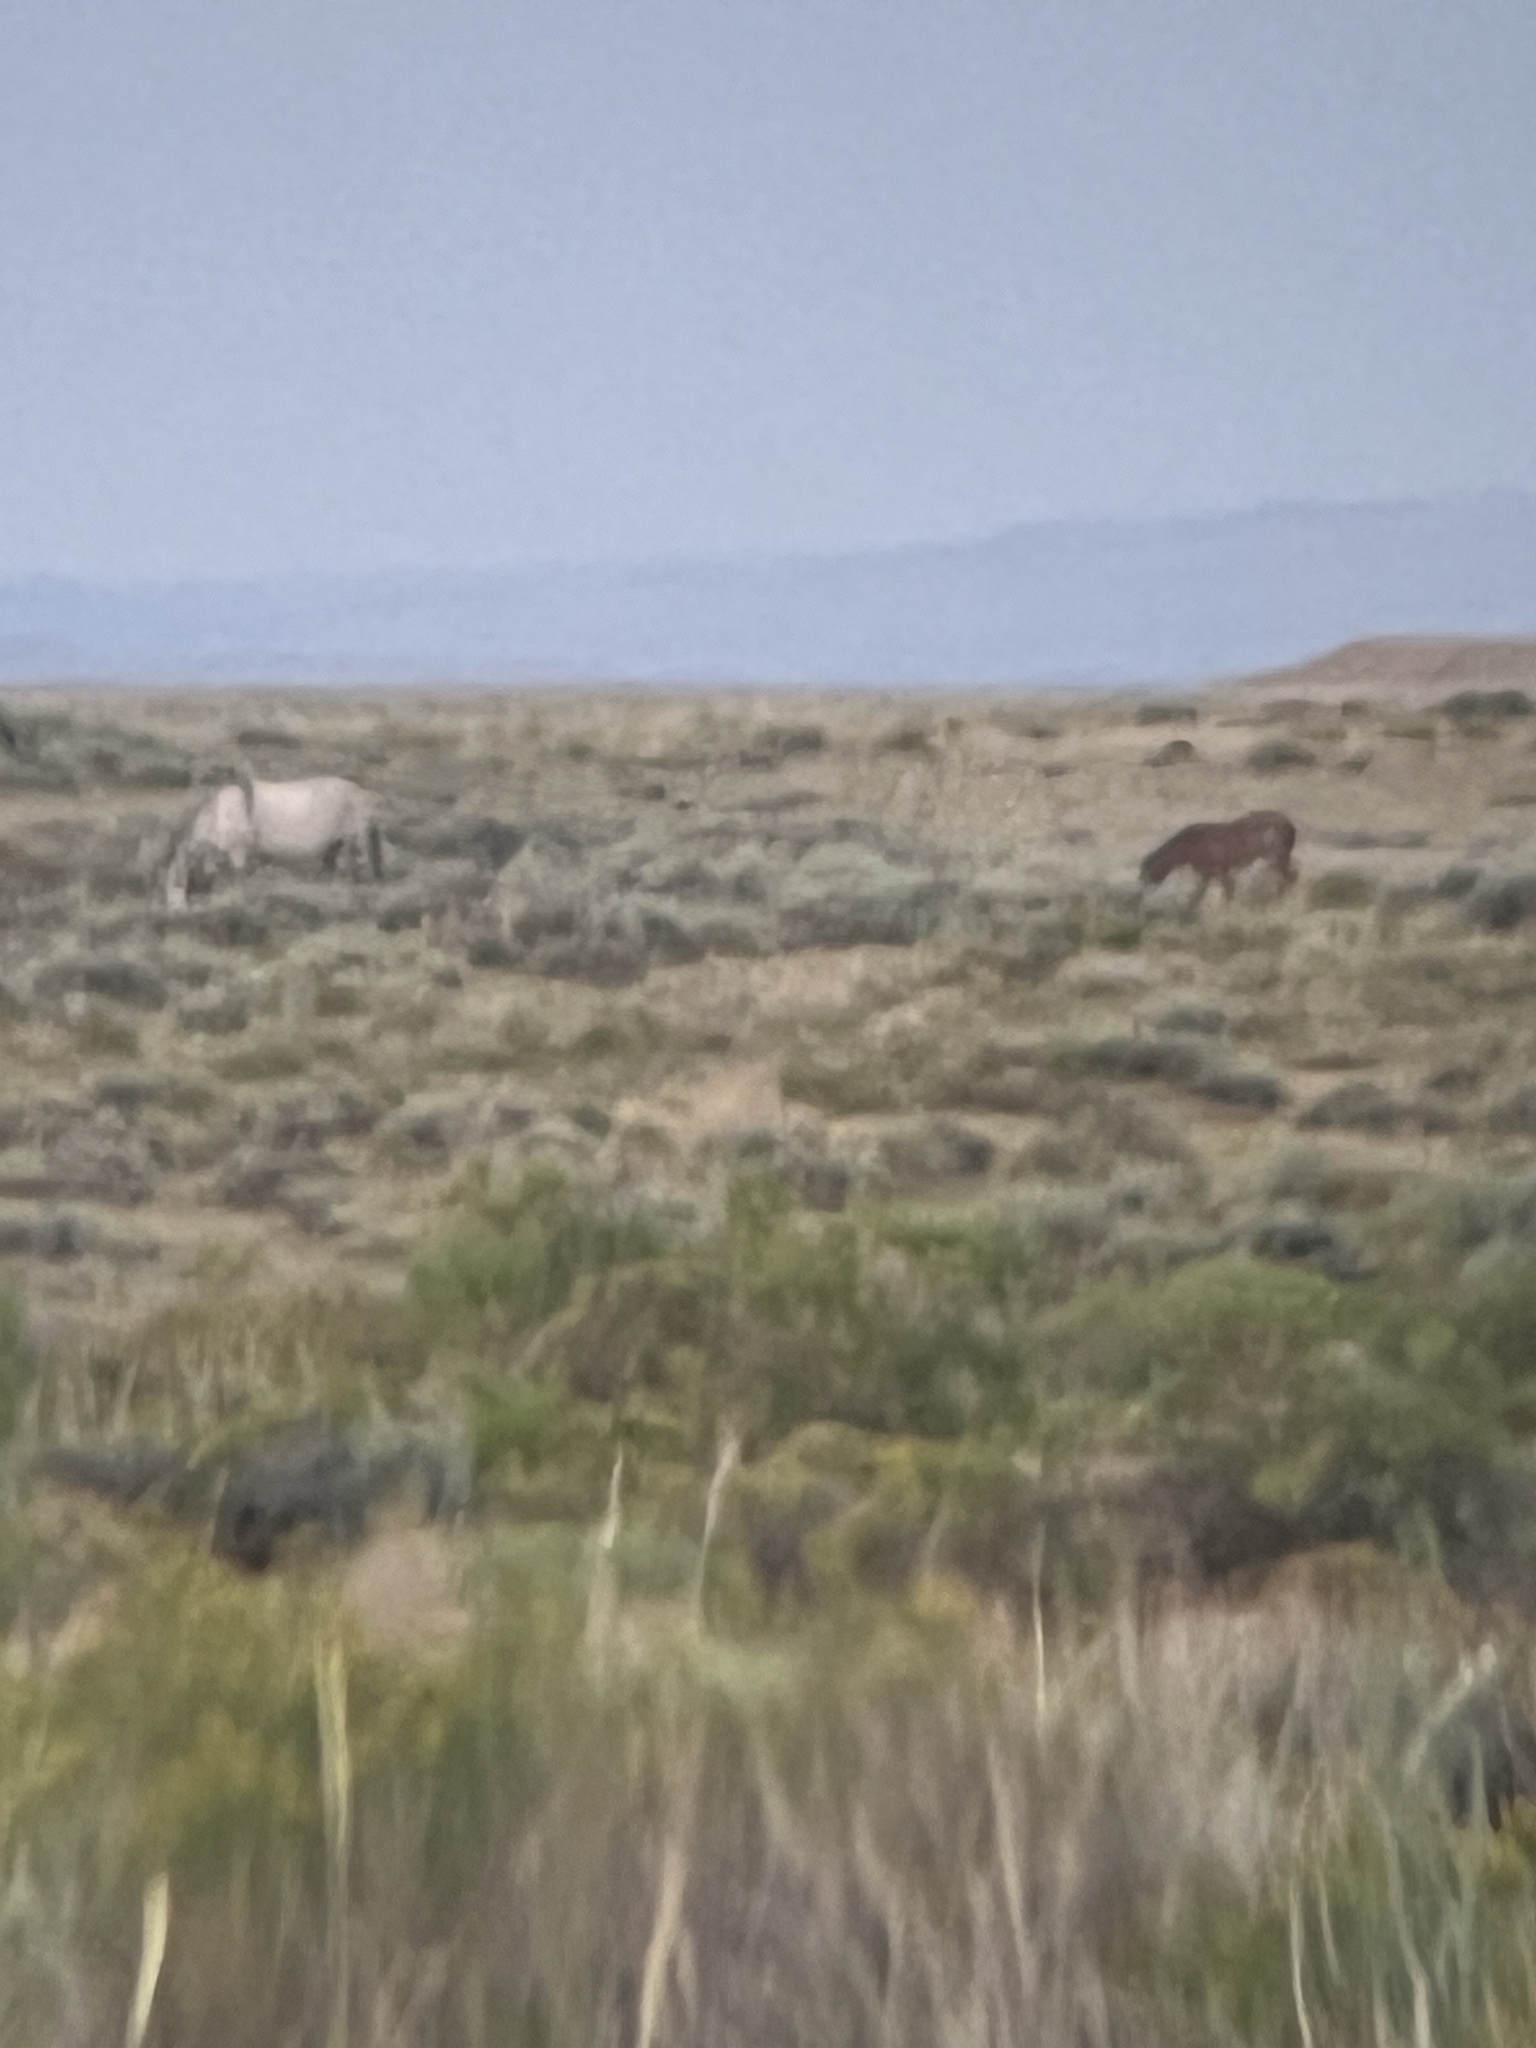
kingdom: Animalia
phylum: Chordata
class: Mammalia
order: Perissodactyla
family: Equidae
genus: Equus
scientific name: Equus caballus
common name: Horse
